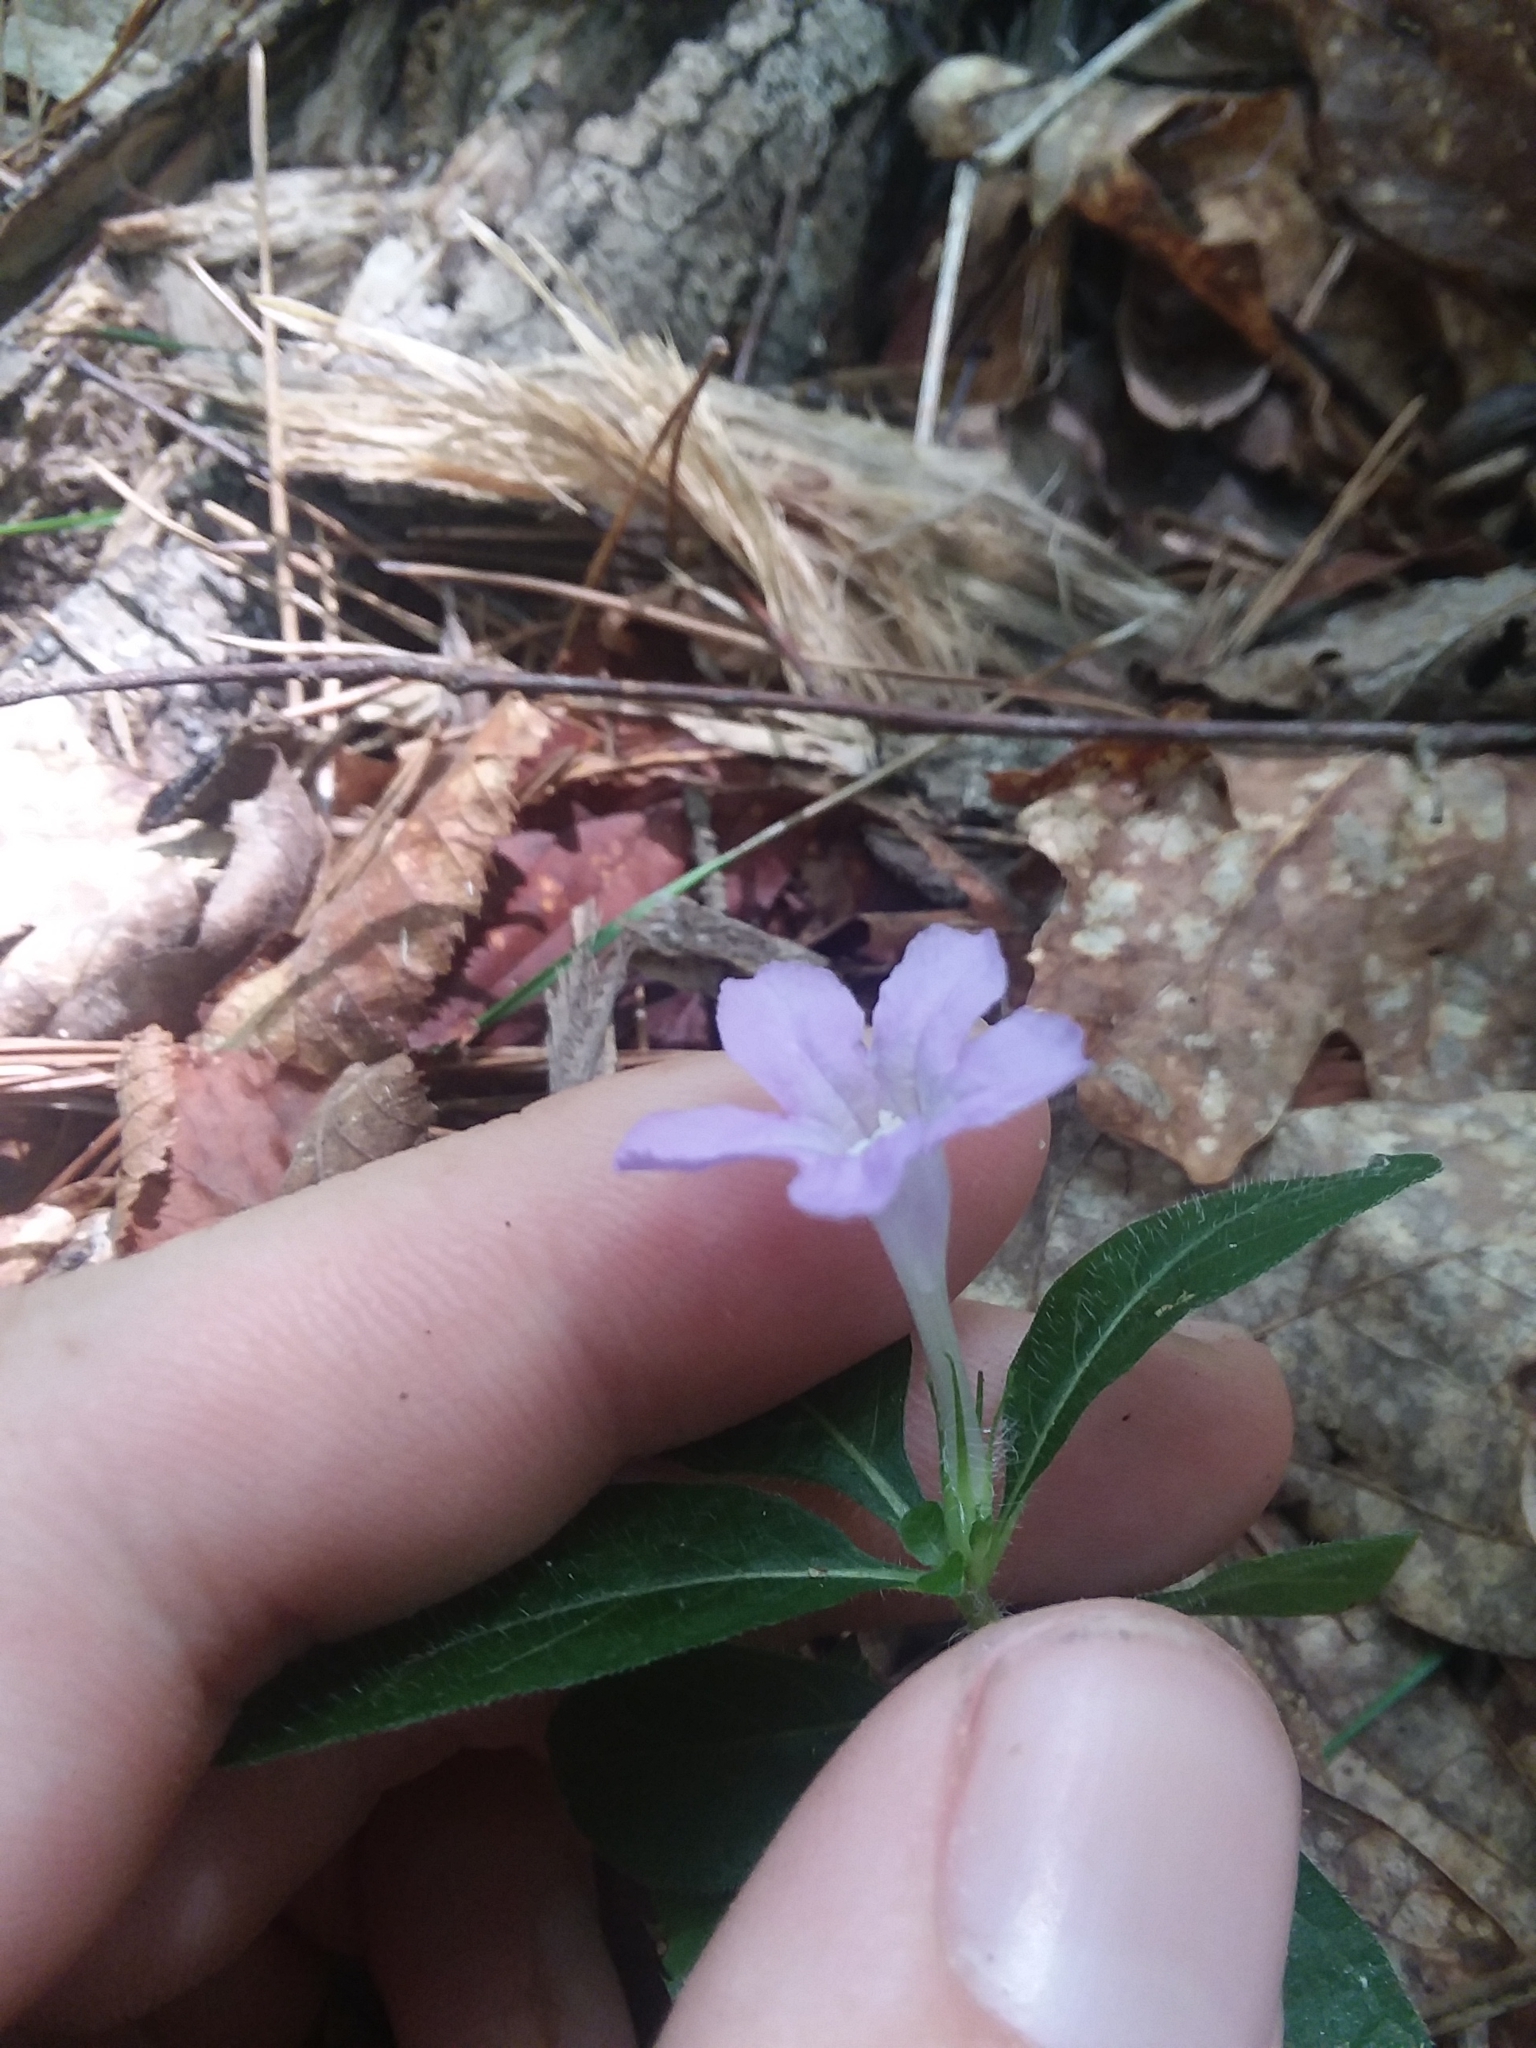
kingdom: Plantae
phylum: Tracheophyta
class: Magnoliopsida
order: Lamiales
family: Acanthaceae
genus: Ruellia
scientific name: Ruellia caroliniensis
